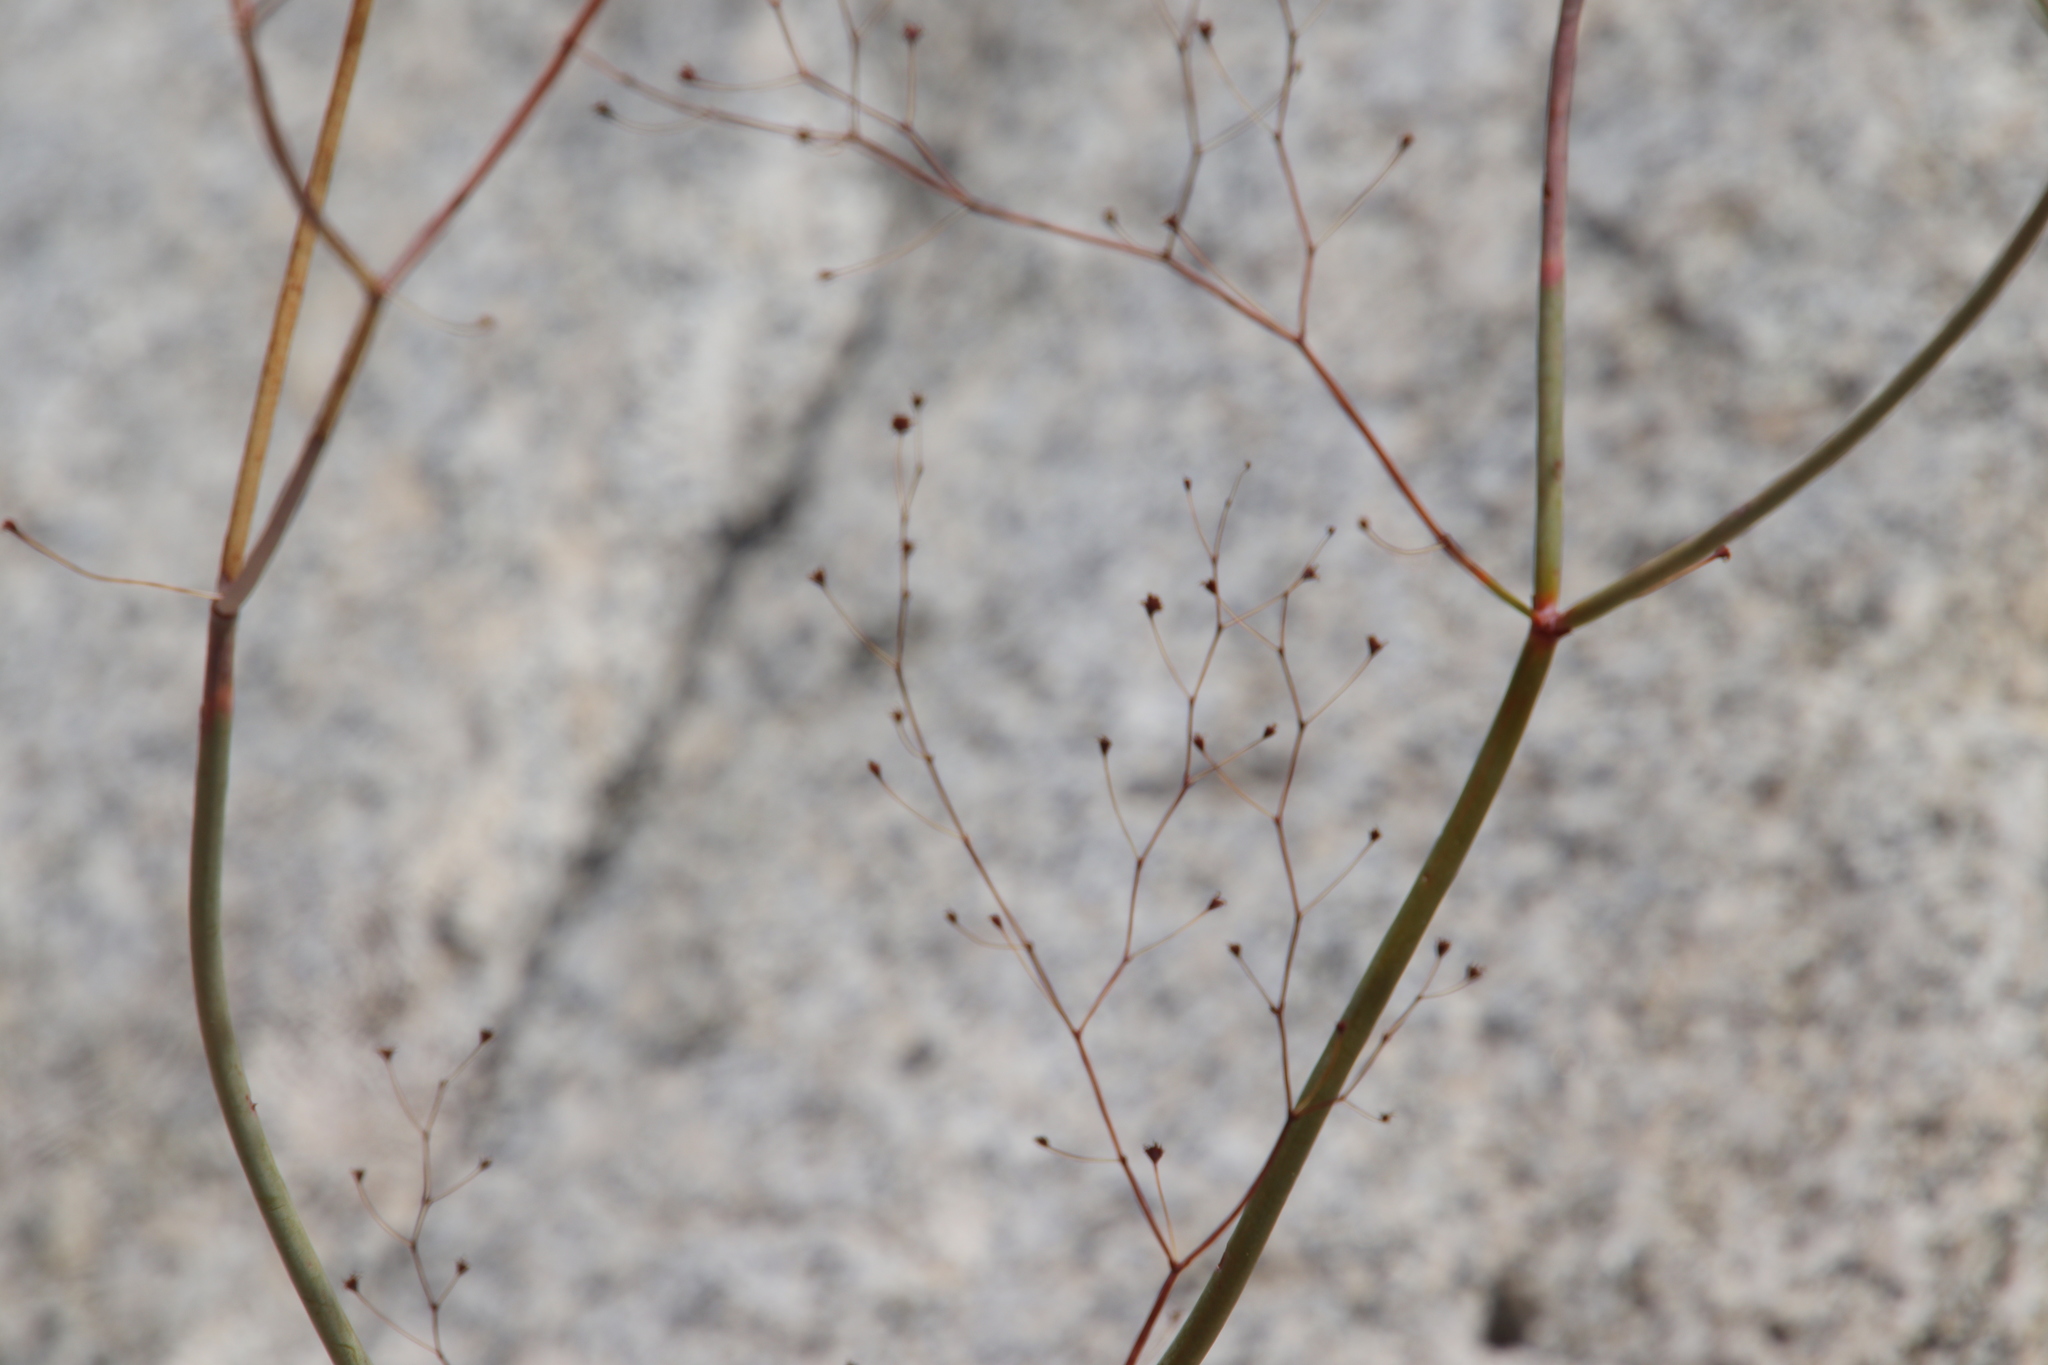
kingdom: Plantae
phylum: Tracheophyta
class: Magnoliopsida
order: Caryophyllales
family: Polygonaceae
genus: Eriogonum
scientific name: Eriogonum inflatum
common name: Desert trumpet
